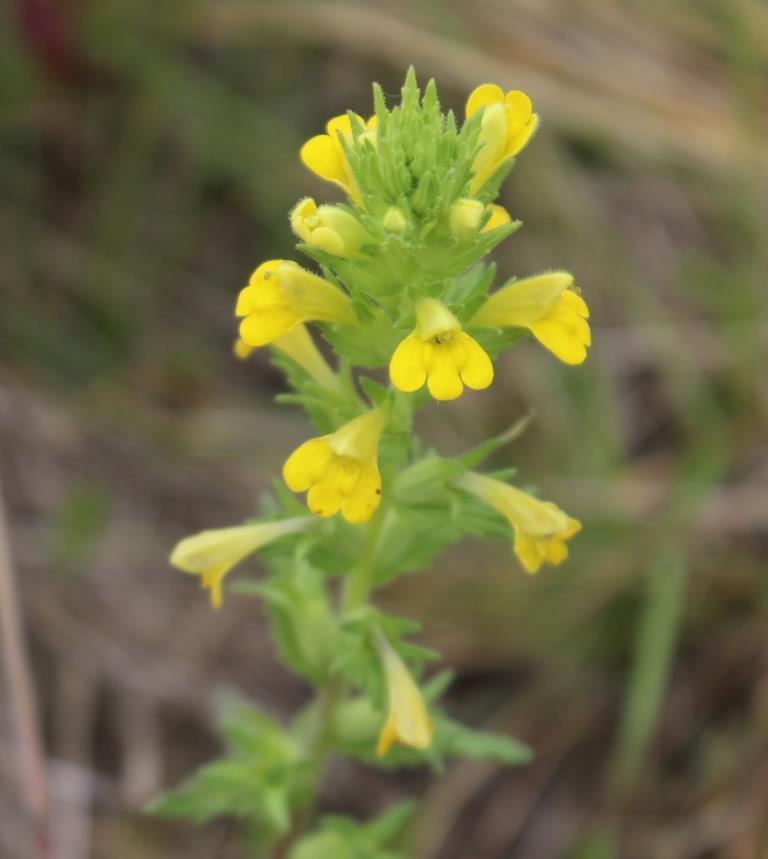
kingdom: Plantae
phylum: Tracheophyta
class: Magnoliopsida
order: Lamiales
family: Orobanchaceae
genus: Bellardia
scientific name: Bellardia viscosa
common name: Sticky parentucellia
